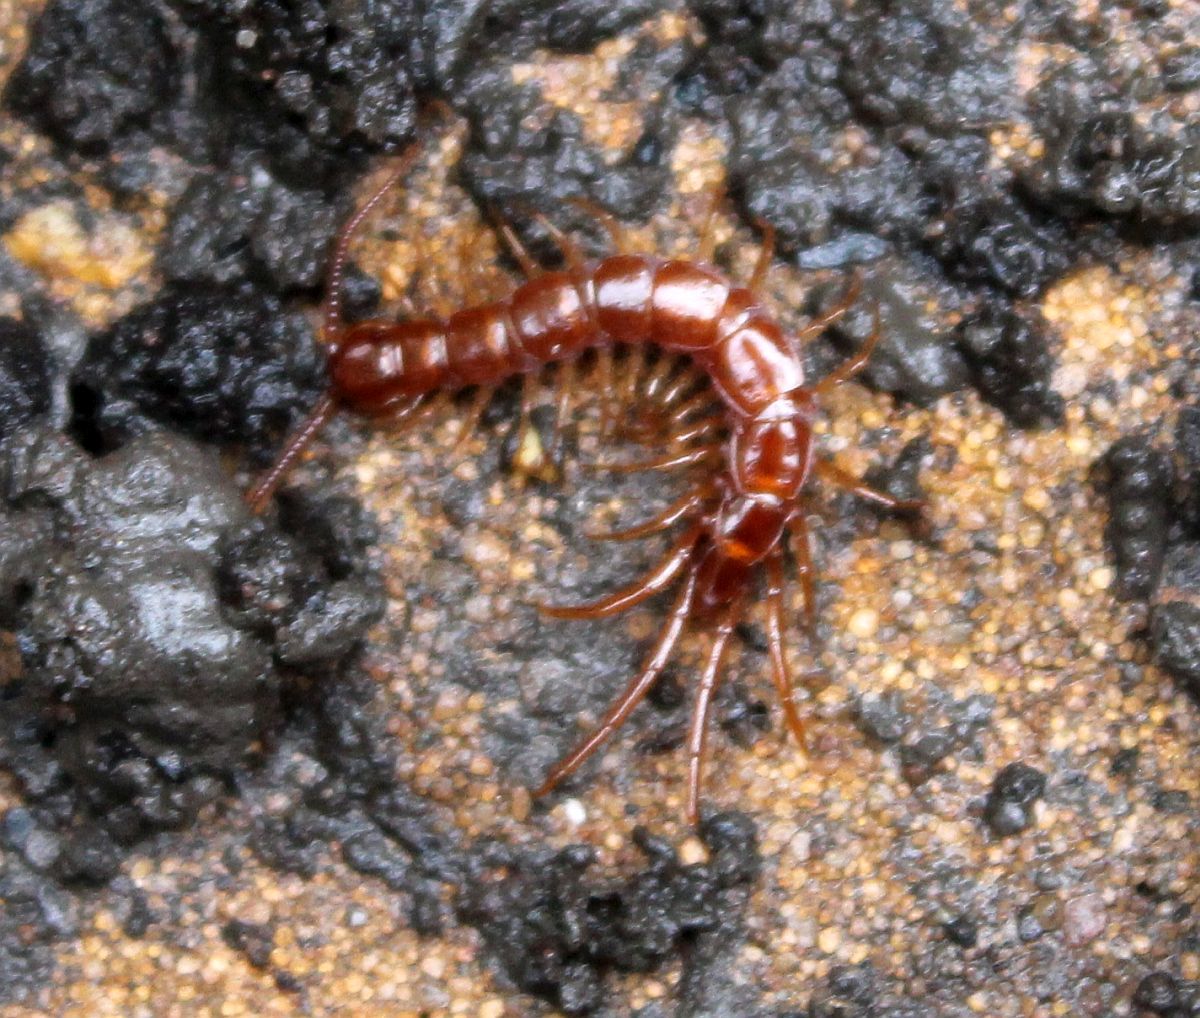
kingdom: Animalia
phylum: Arthropoda
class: Chilopoda
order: Lithobiomorpha
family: Lithobiidae
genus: Lithobius
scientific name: Lithobius forficatus
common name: Centipede
